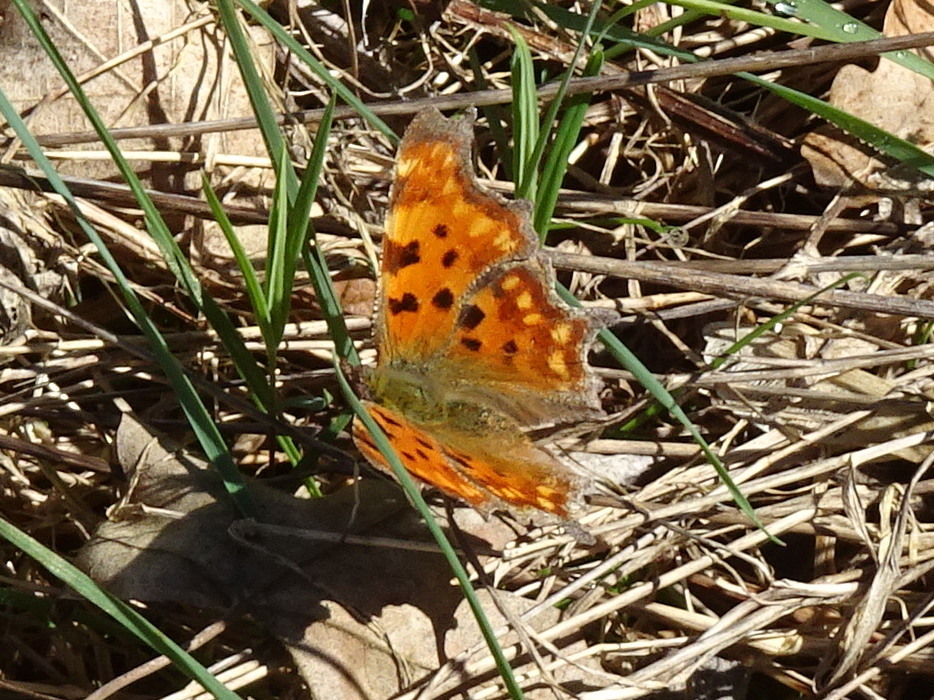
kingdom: Animalia
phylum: Arthropoda
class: Insecta
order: Lepidoptera
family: Nymphalidae
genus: Polygonia
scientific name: Polygonia c-album
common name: Comma
